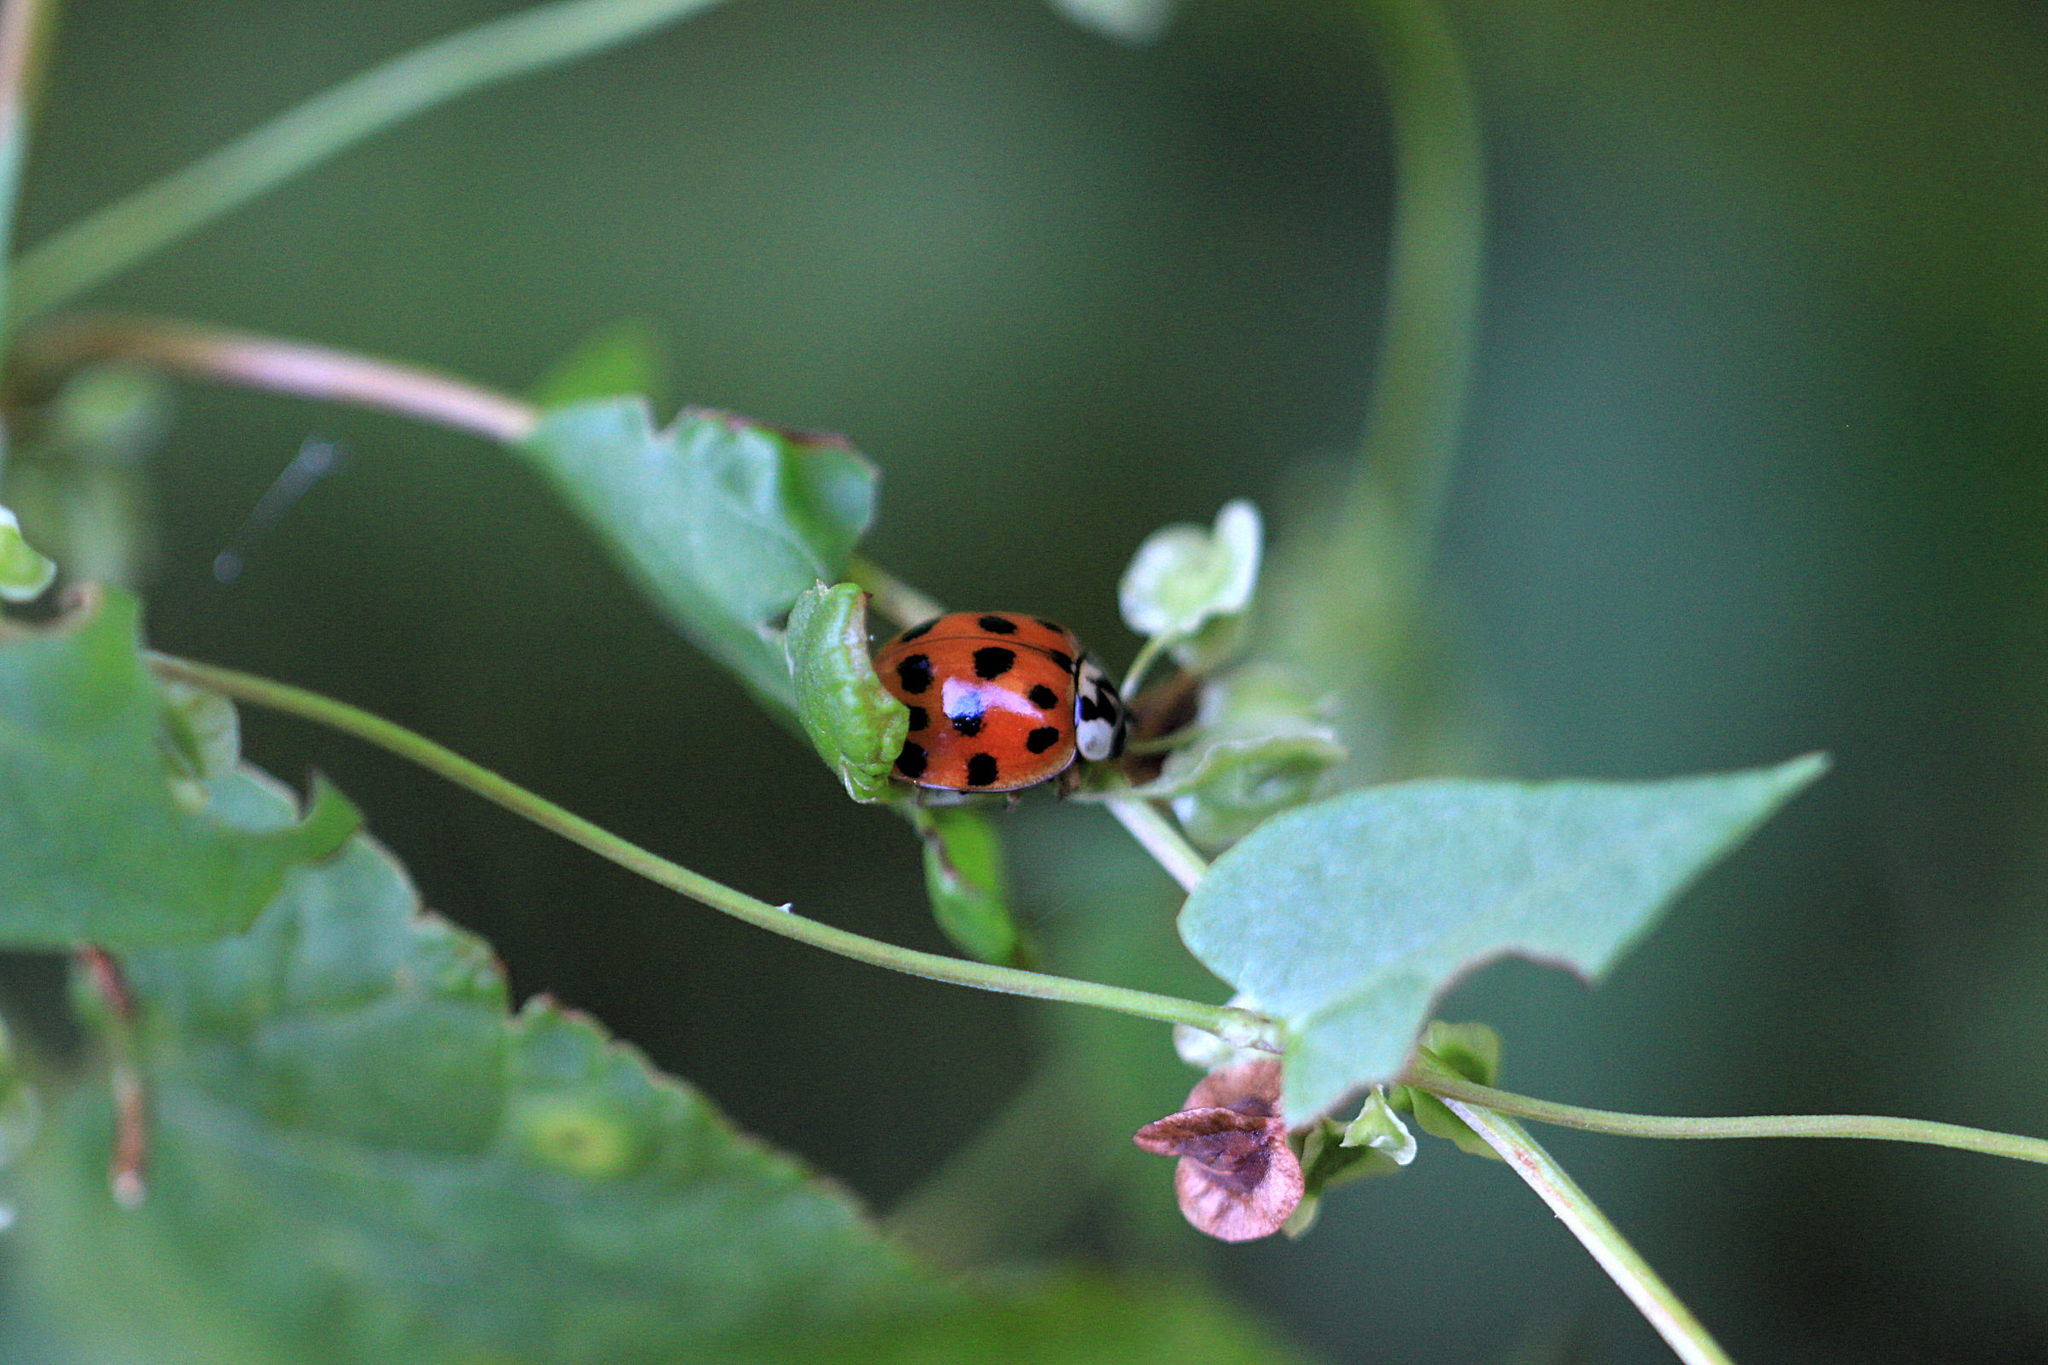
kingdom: Animalia
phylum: Arthropoda
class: Insecta
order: Coleoptera
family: Coccinellidae
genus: Harmonia
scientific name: Harmonia axyridis
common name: Harlequin ladybird
